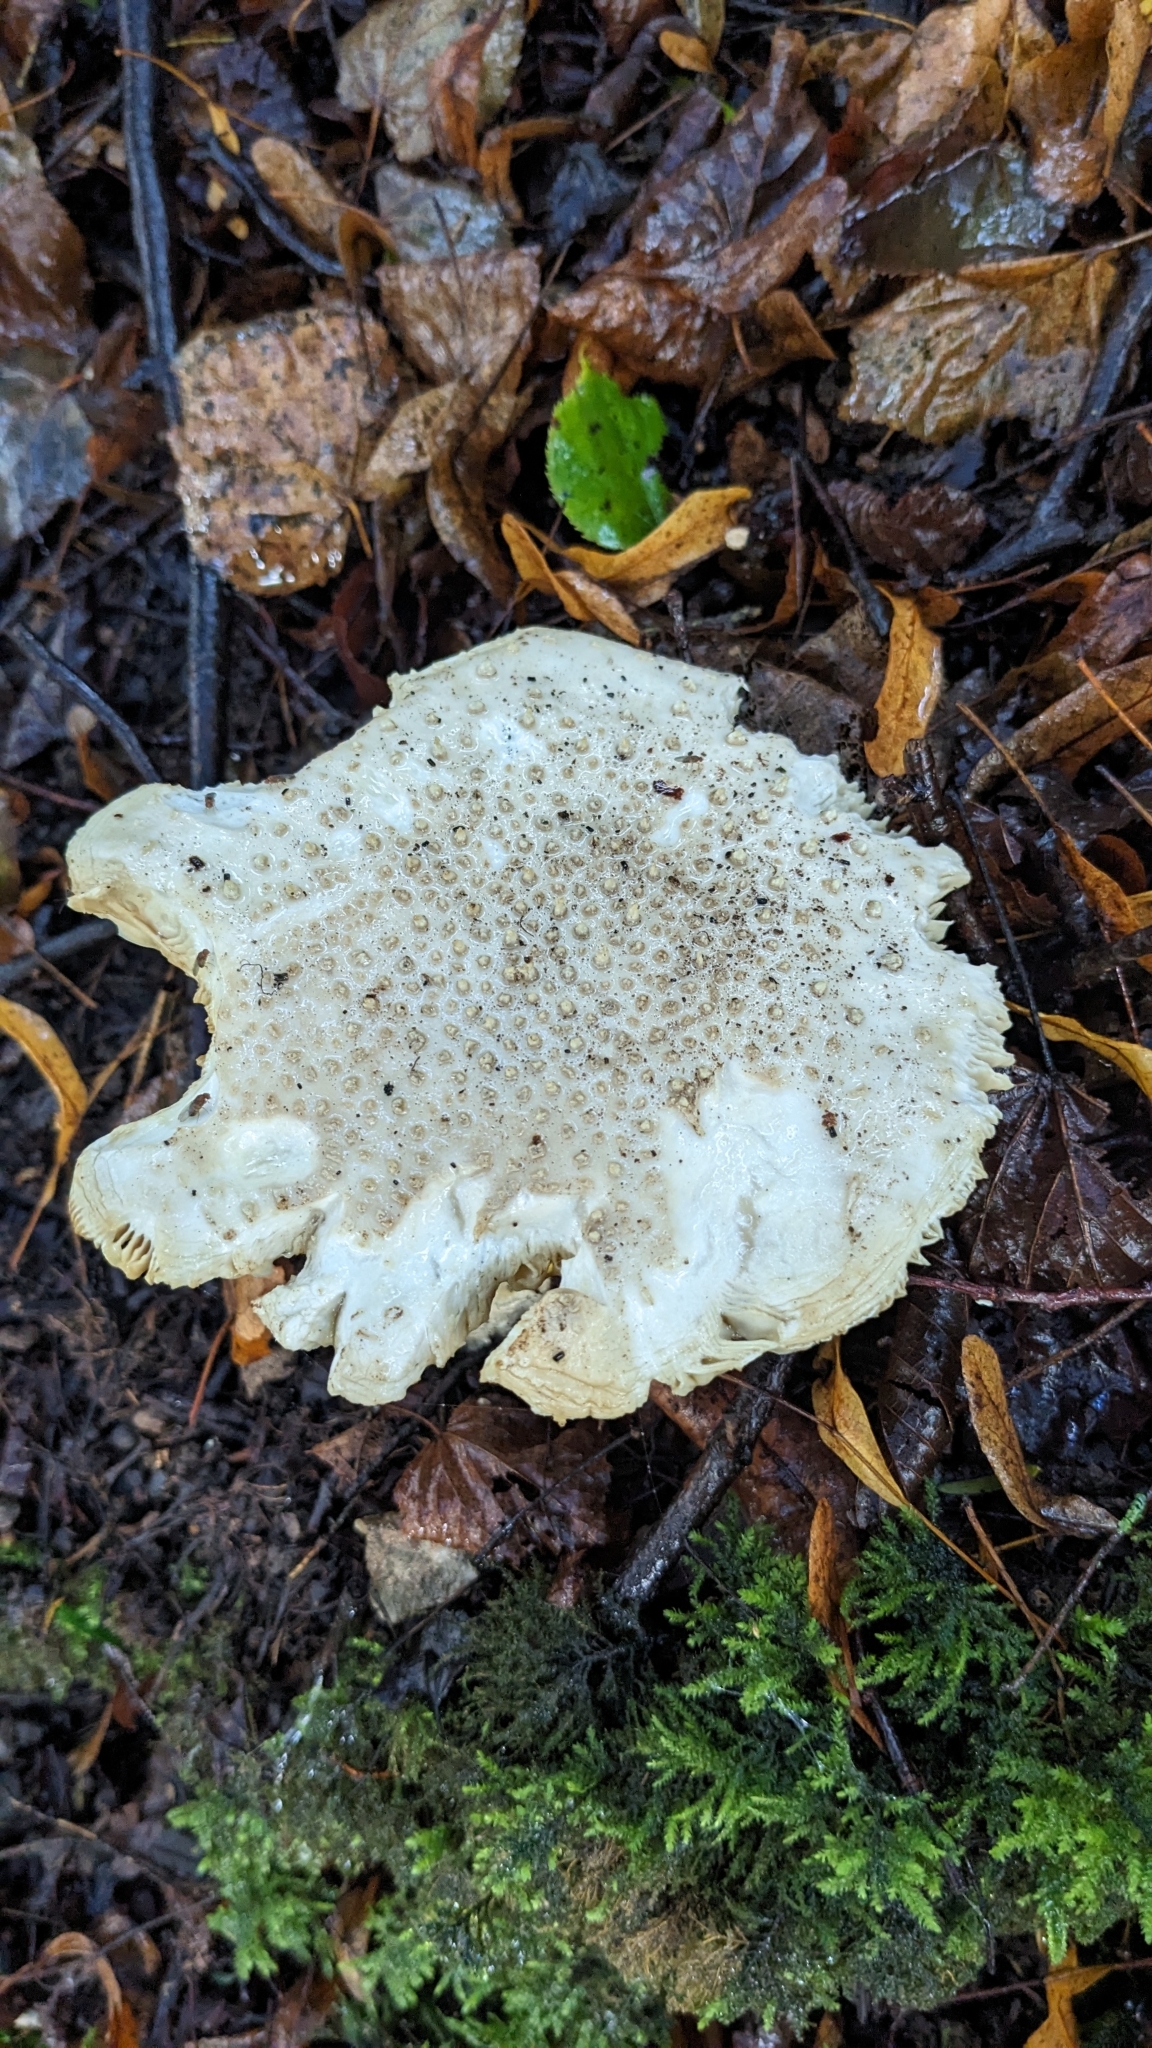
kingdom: Fungi
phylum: Basidiomycota
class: Agaricomycetes
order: Agaricales
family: Amanitaceae
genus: Amanita
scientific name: Amanita echinocephala
